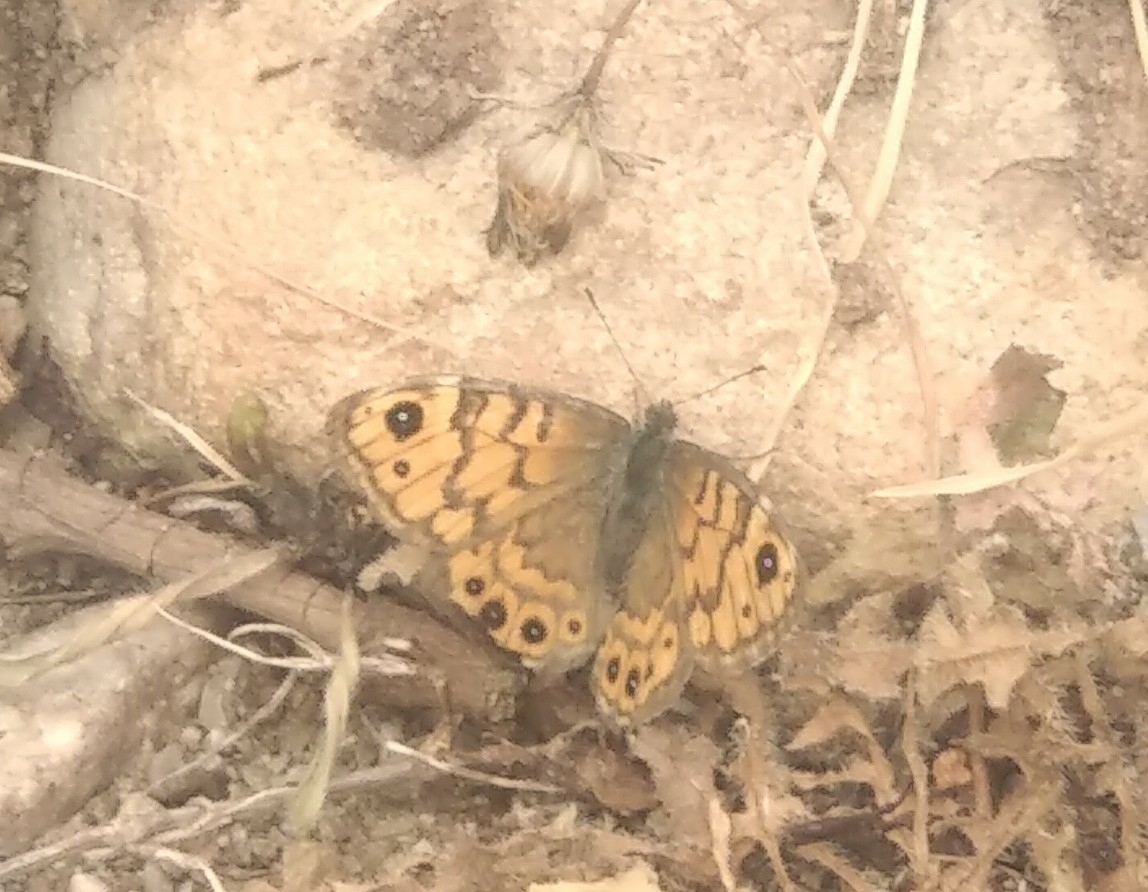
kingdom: Animalia
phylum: Arthropoda
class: Insecta
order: Lepidoptera
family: Nymphalidae
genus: Pararge
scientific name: Pararge Lasiommata megera
